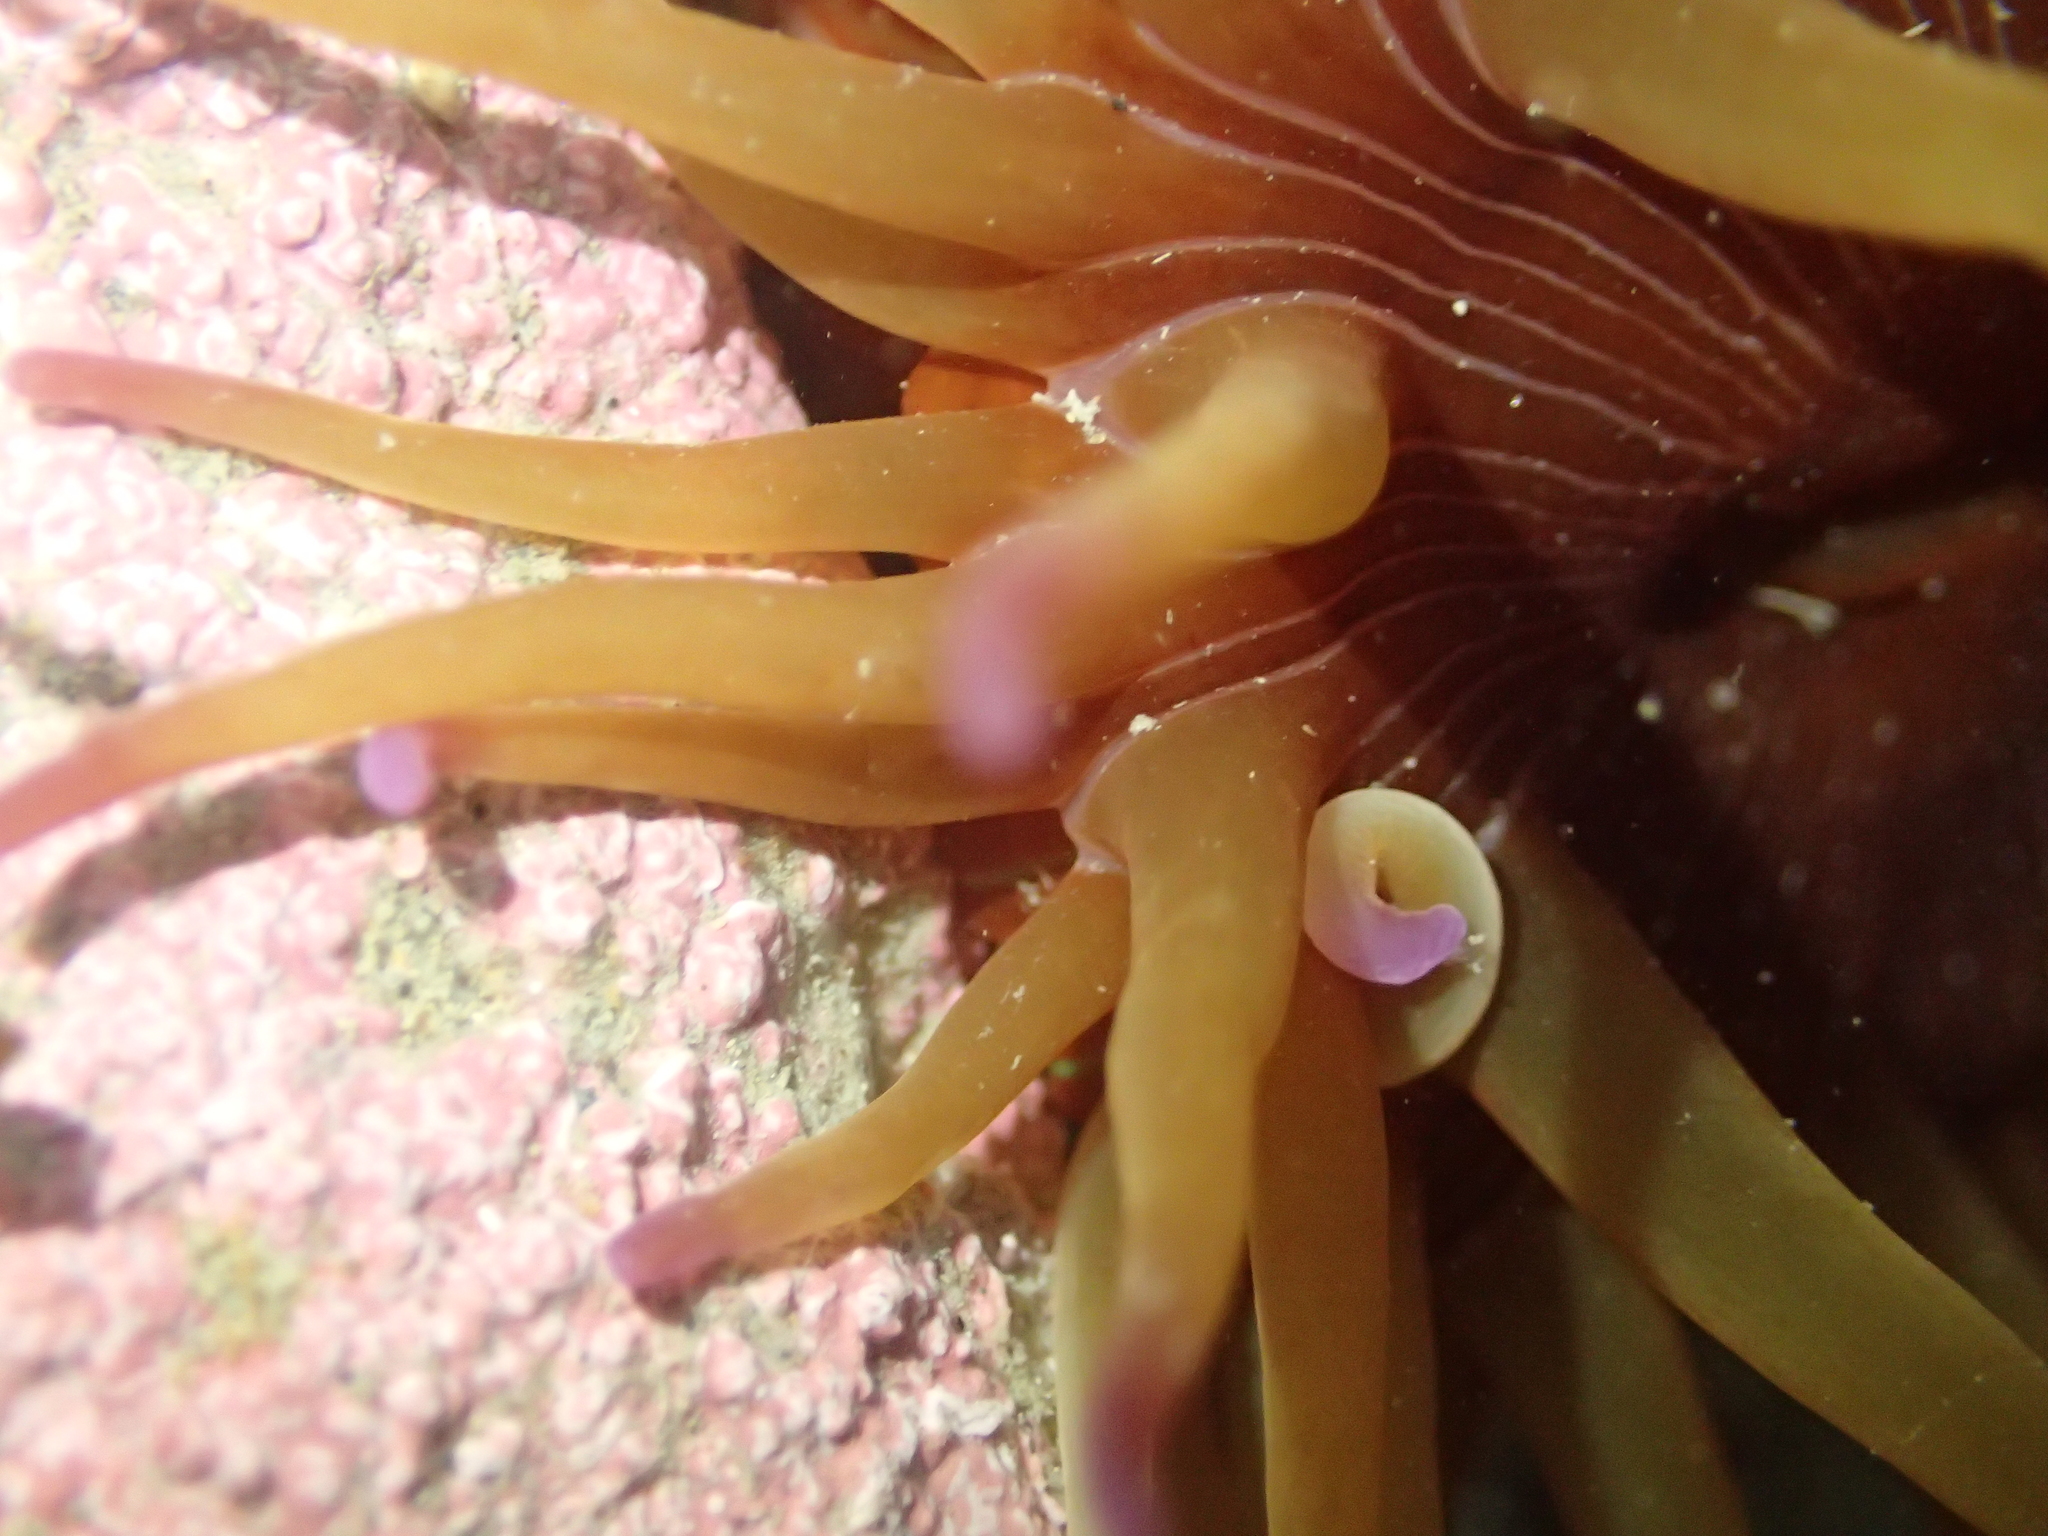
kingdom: Animalia
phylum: Cnidaria
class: Anthozoa
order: Actiniaria
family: Actiniidae
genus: Epiactis
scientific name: Epiactis thompsoni
